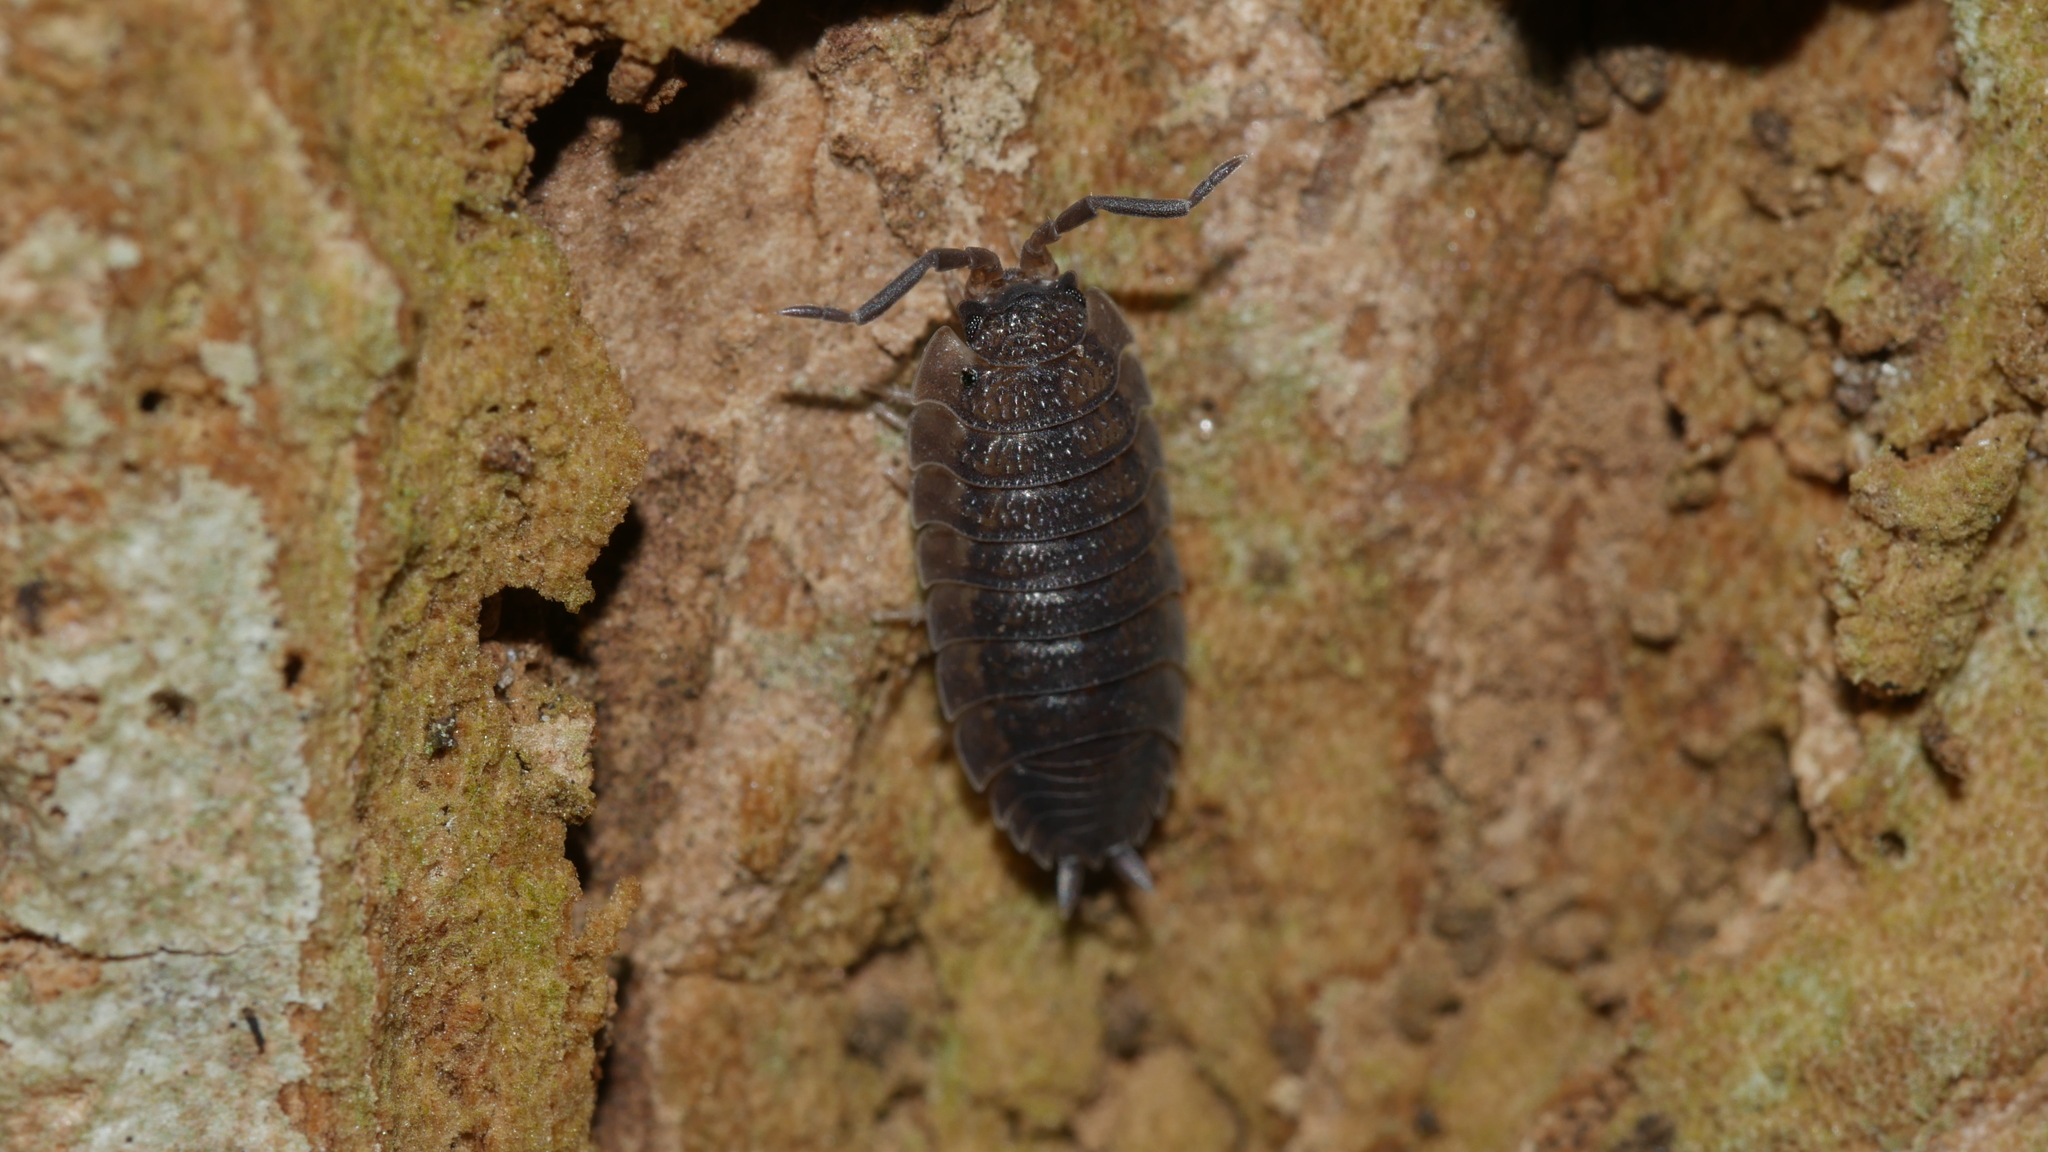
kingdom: Animalia
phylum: Arthropoda
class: Malacostraca
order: Isopoda
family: Porcellionidae
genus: Porcellio
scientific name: Porcellio scaber
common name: Common rough woodlouse
